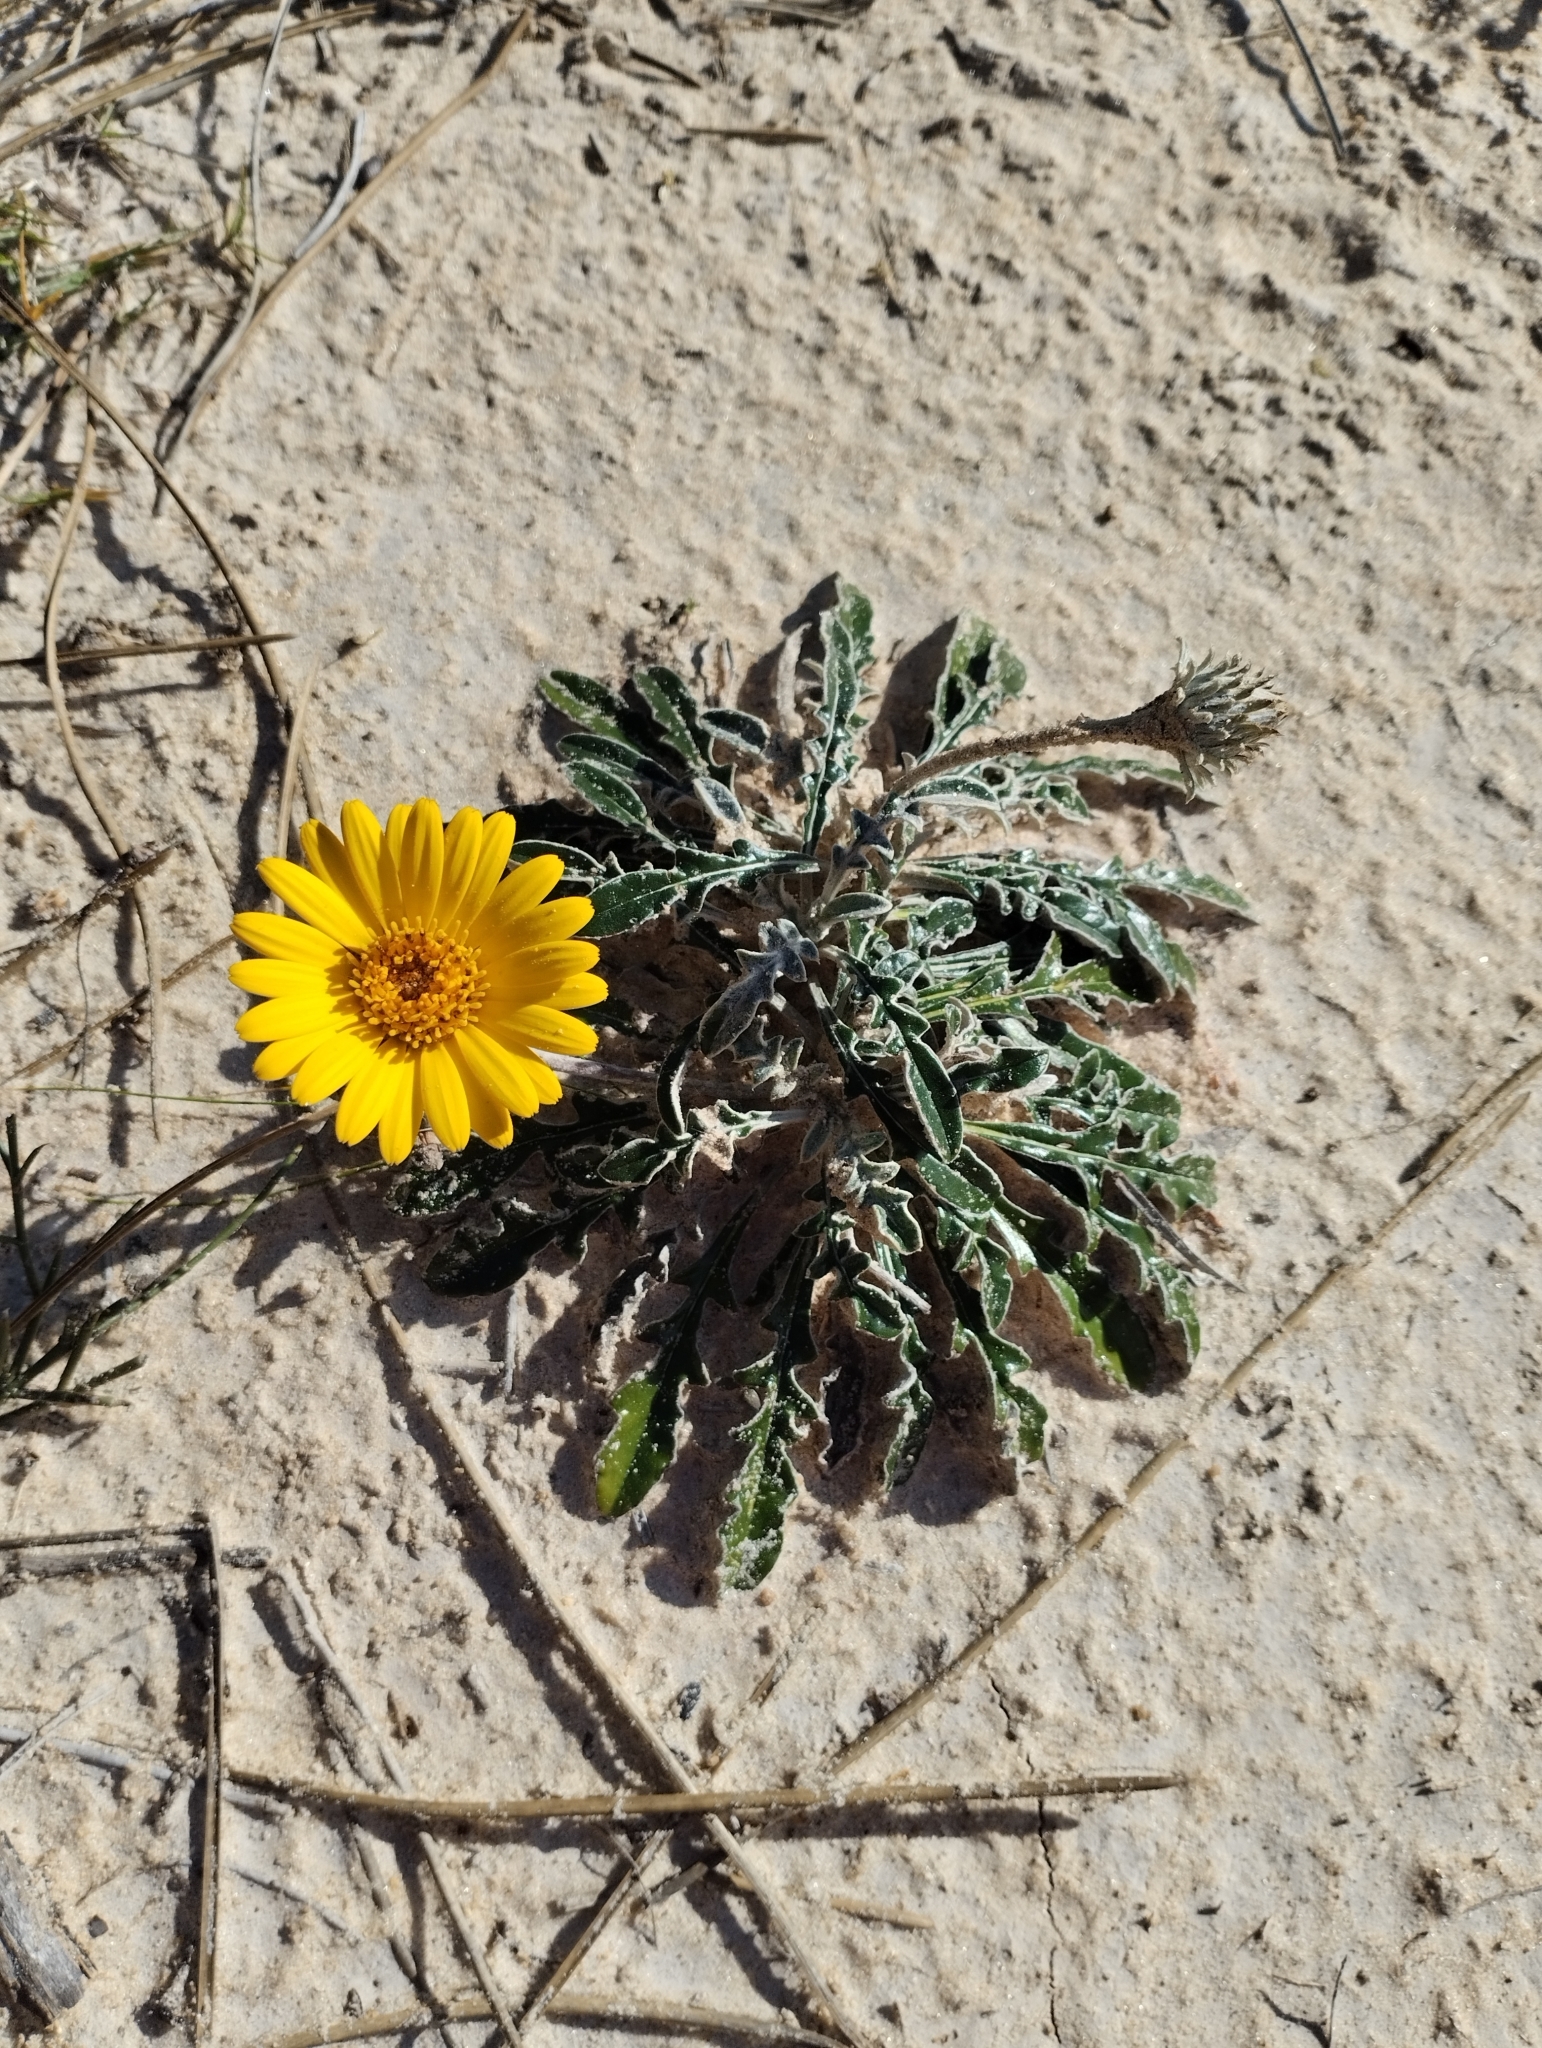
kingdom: Plantae
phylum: Tracheophyta
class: Magnoliopsida
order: Asterales
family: Asteraceae
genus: Trichocline
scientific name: Trichocline incana
